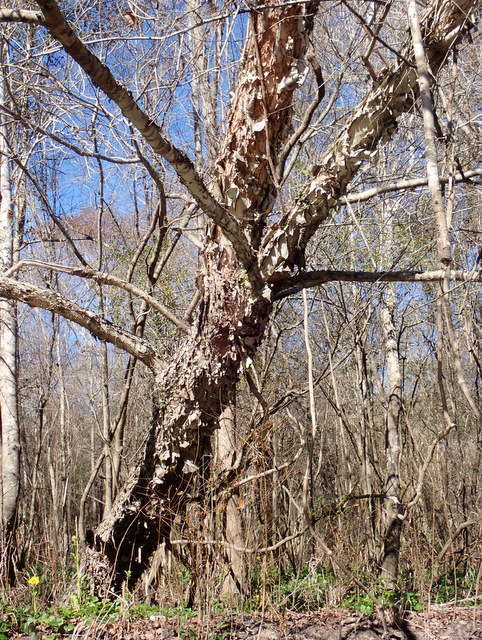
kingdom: Plantae
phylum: Tracheophyta
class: Magnoliopsida
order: Fagales
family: Betulaceae
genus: Betula
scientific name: Betula nigra
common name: Black birch
